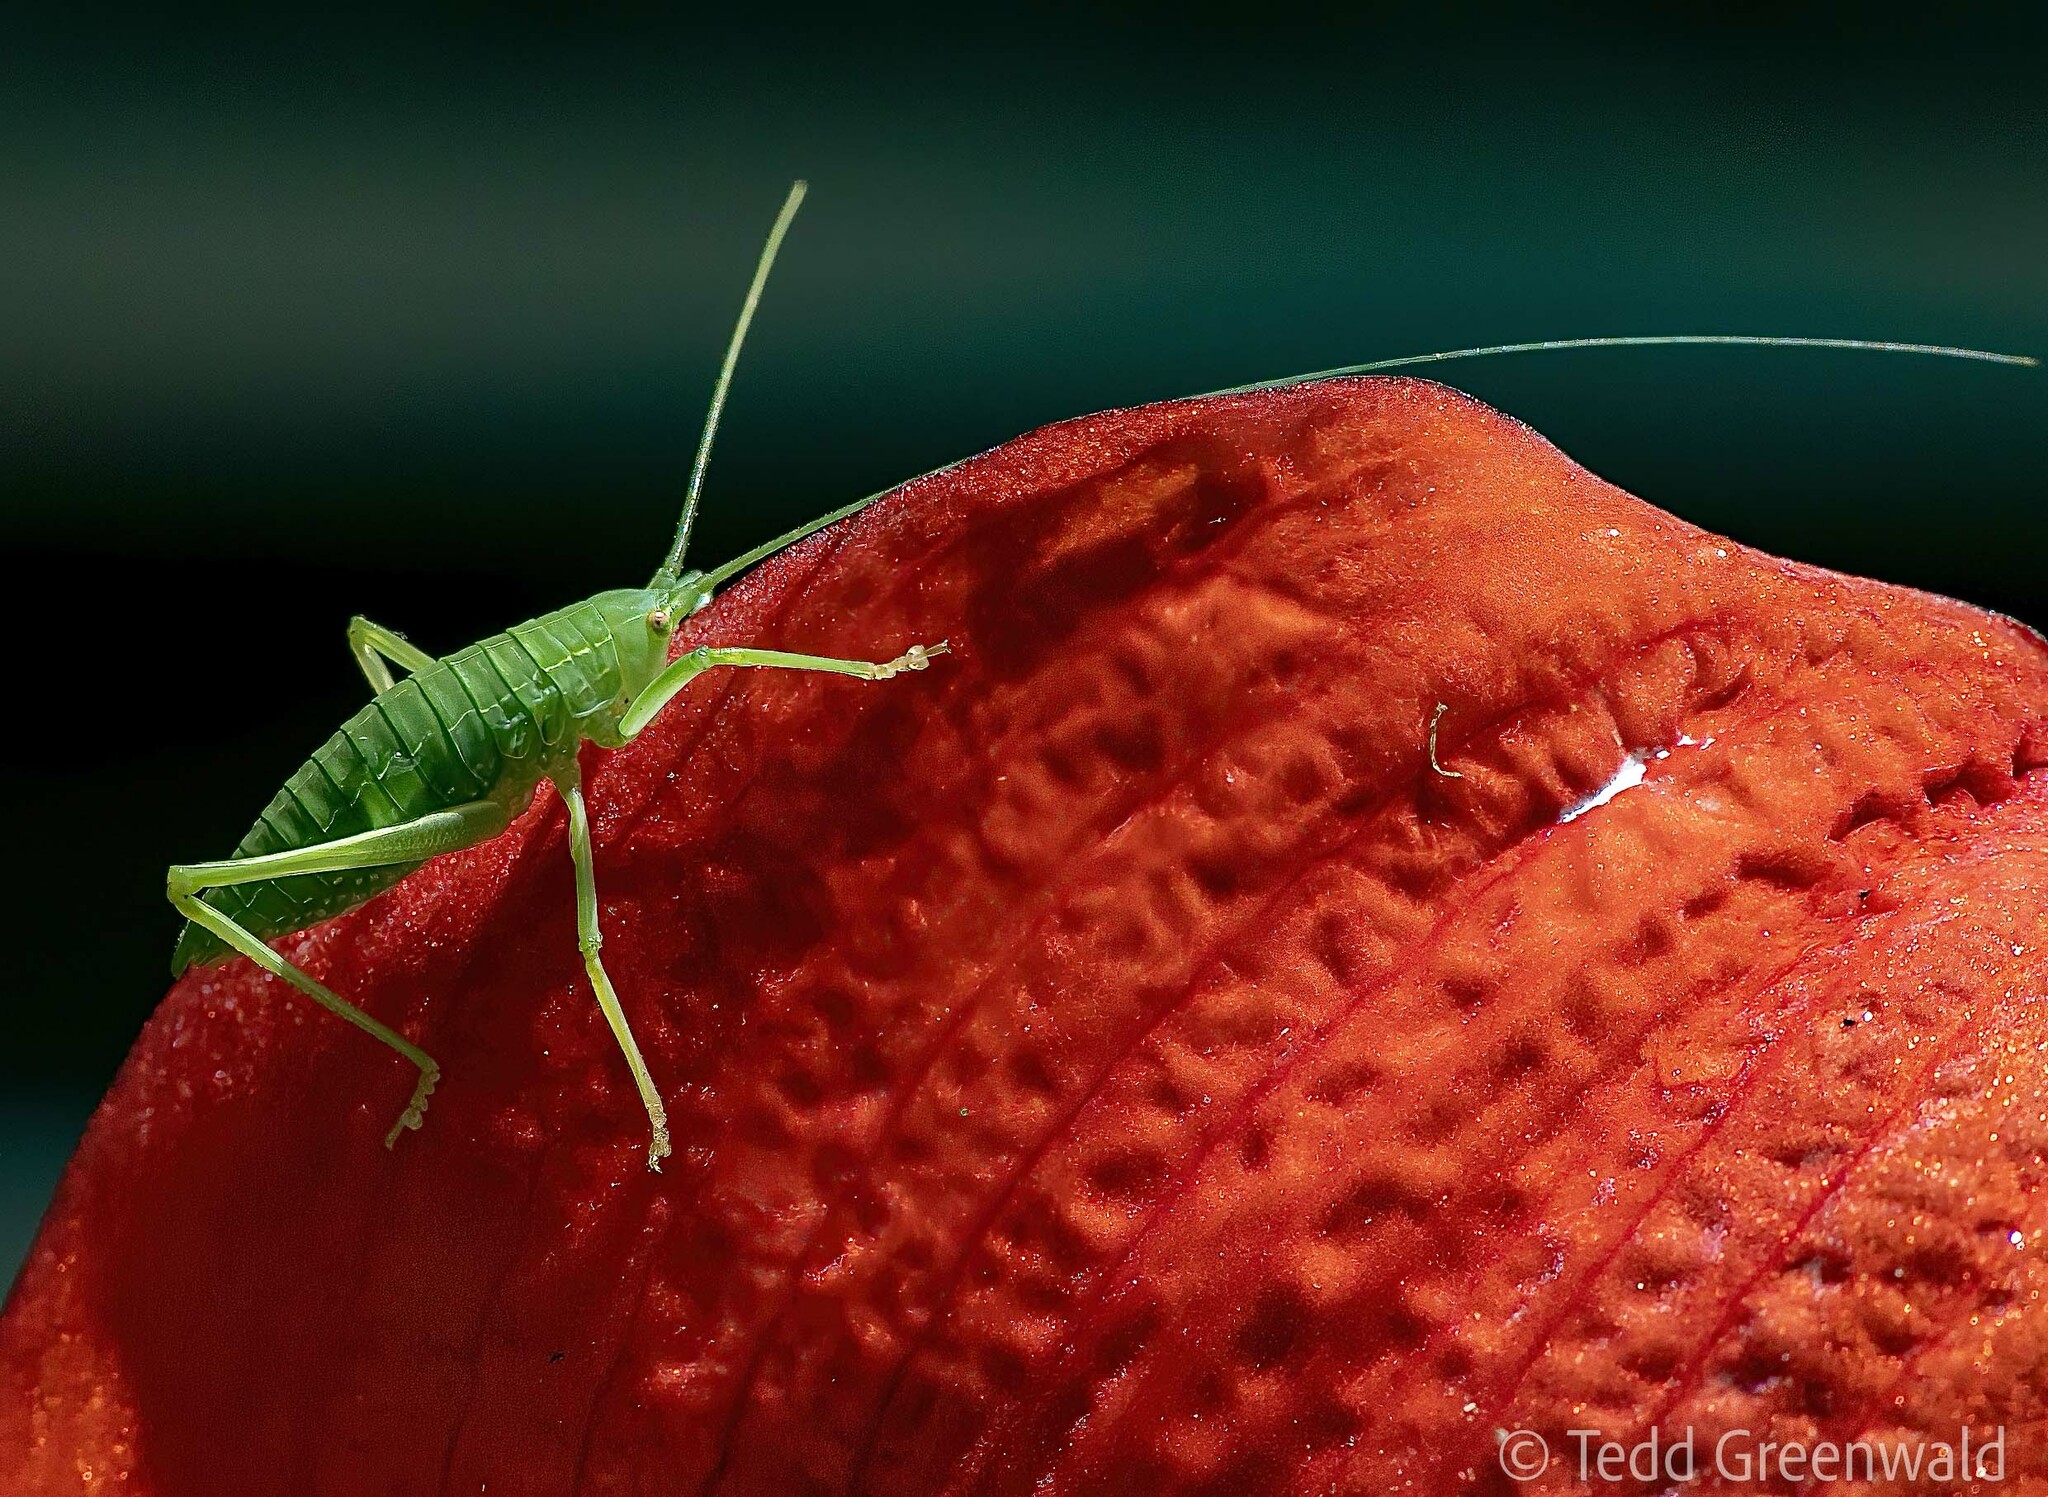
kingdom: Animalia
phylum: Arthropoda
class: Insecta
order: Orthoptera
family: Tettigoniidae
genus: Lea
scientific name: Lea floridensis
